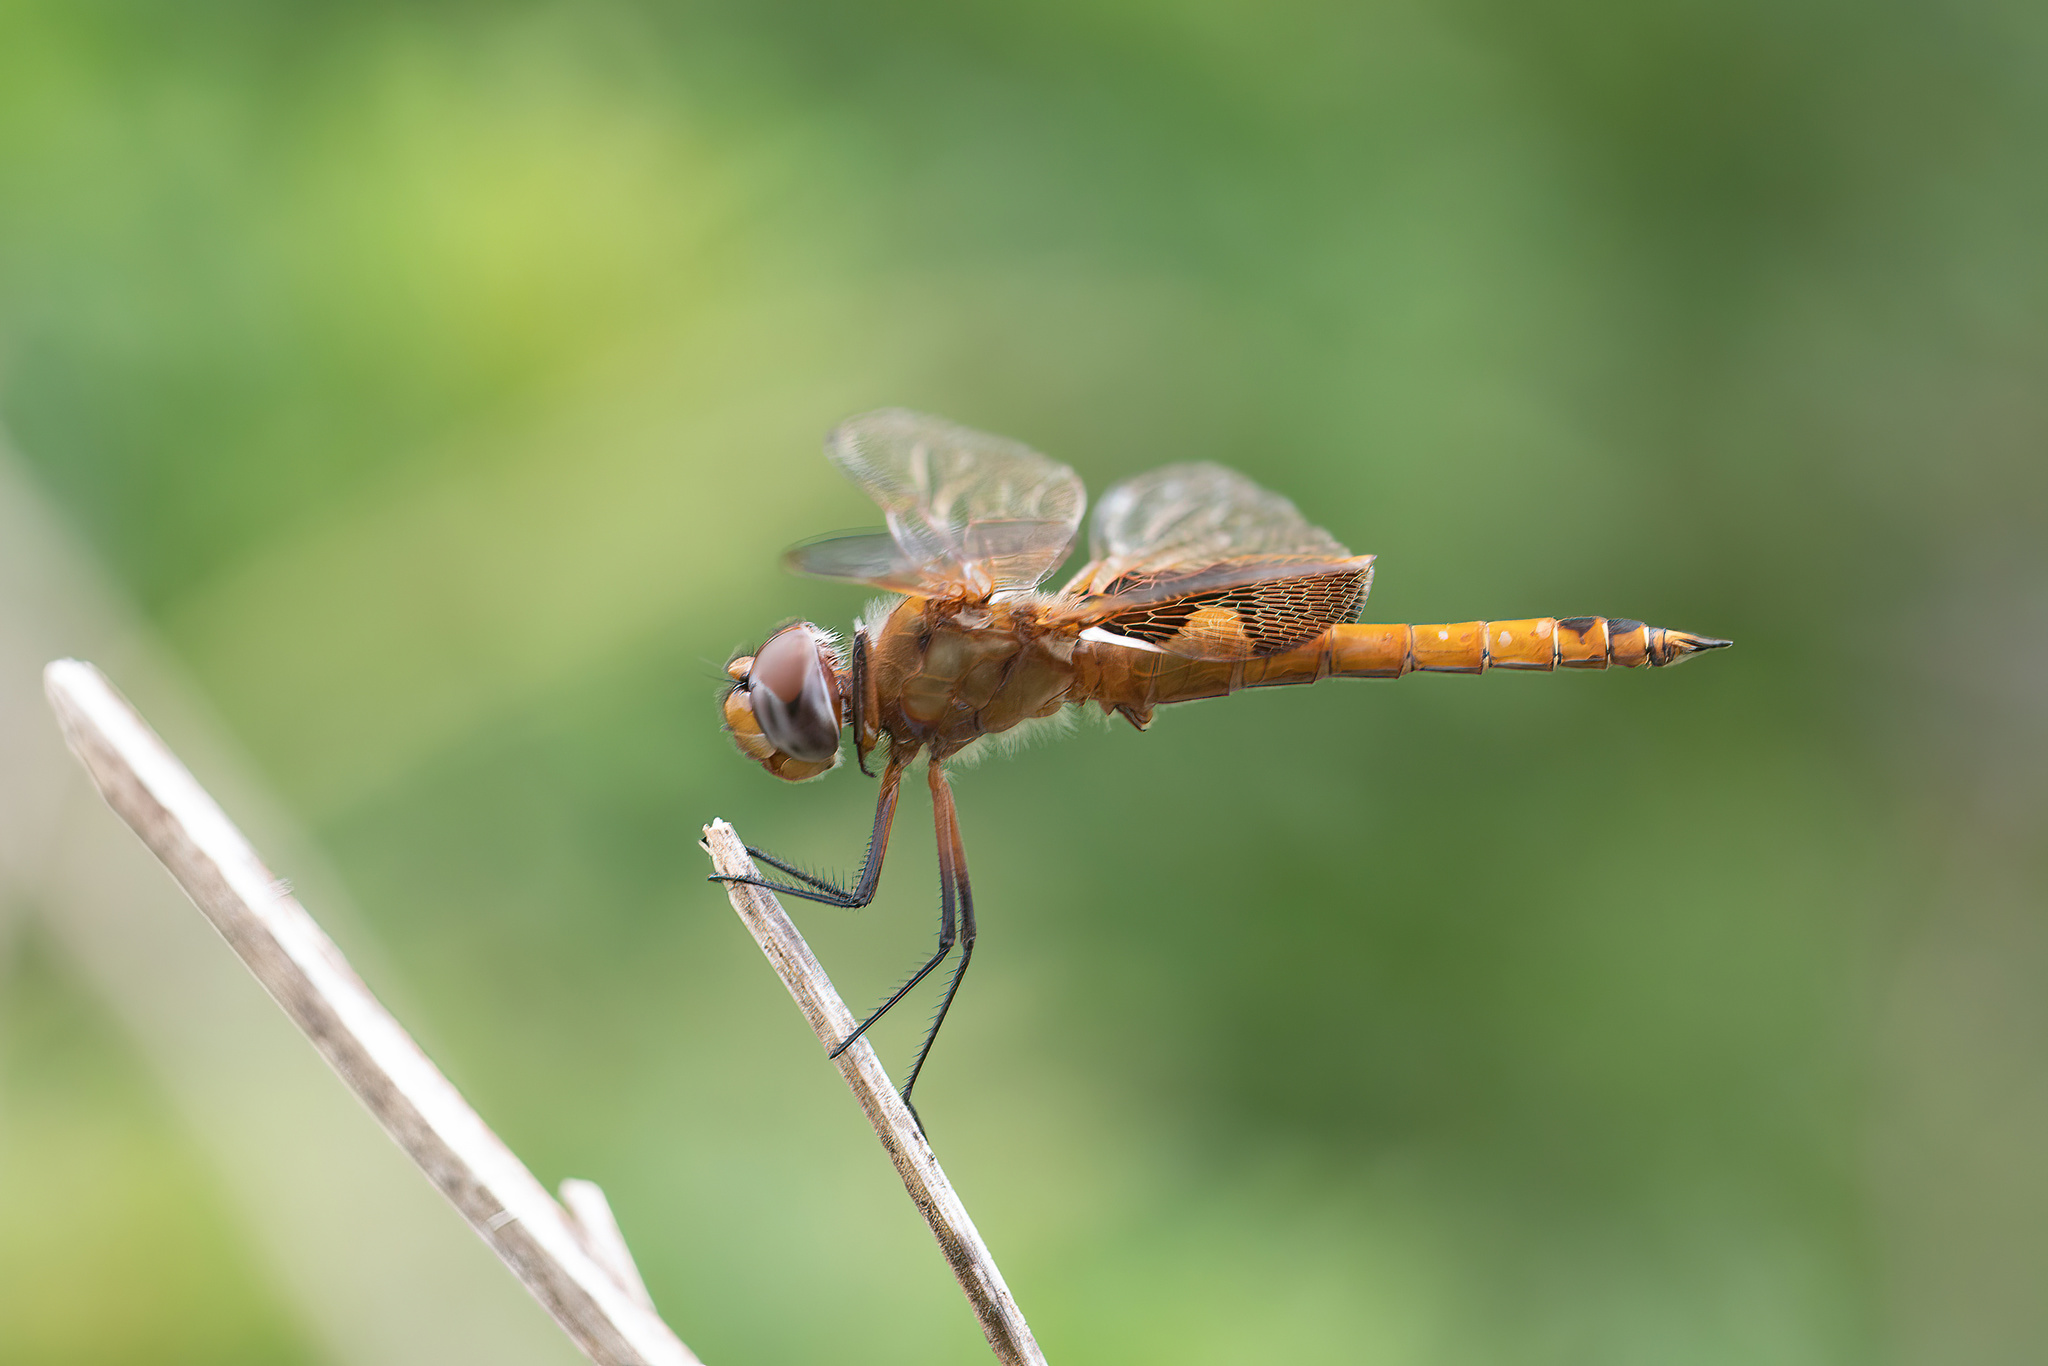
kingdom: Animalia
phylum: Arthropoda
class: Insecta
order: Odonata
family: Libellulidae
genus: Tramea
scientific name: Tramea onusta
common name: Red saddlebags
